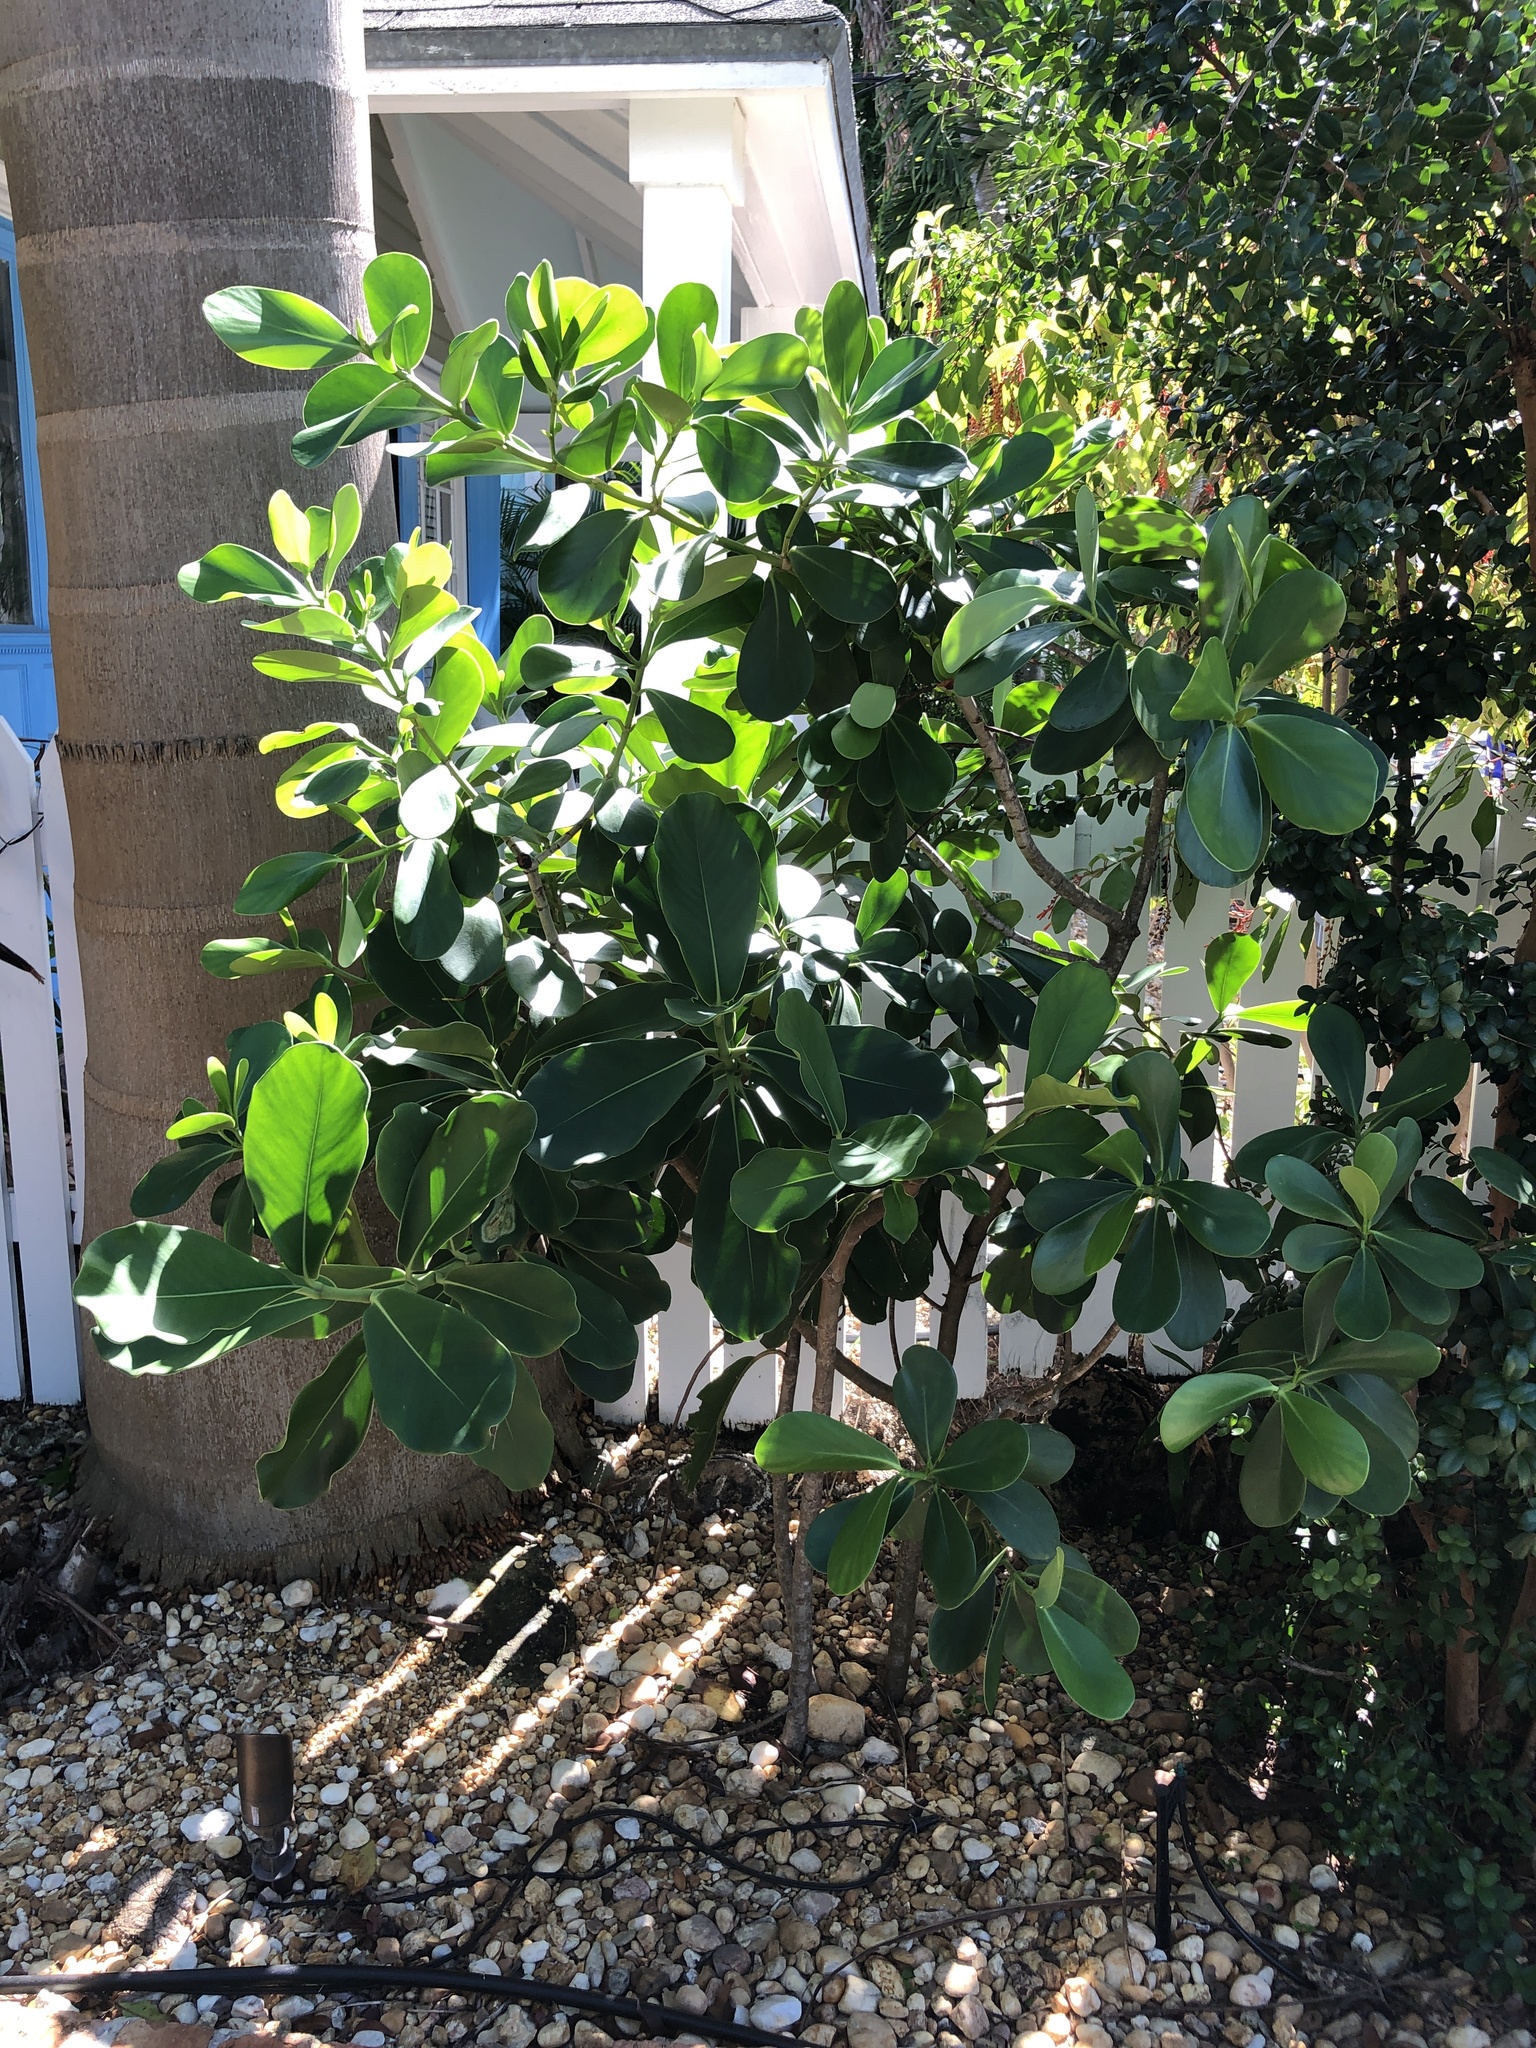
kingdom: Plantae
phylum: Tracheophyta
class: Magnoliopsida
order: Malpighiales
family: Clusiaceae
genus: Clusia
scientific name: Clusia rosea
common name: Scotch attorney
